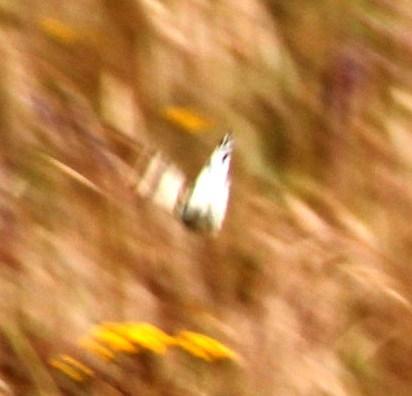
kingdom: Animalia
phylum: Arthropoda
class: Insecta
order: Lepidoptera
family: Pieridae
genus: Belenois
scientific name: Belenois aurota
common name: Brown-veined white
